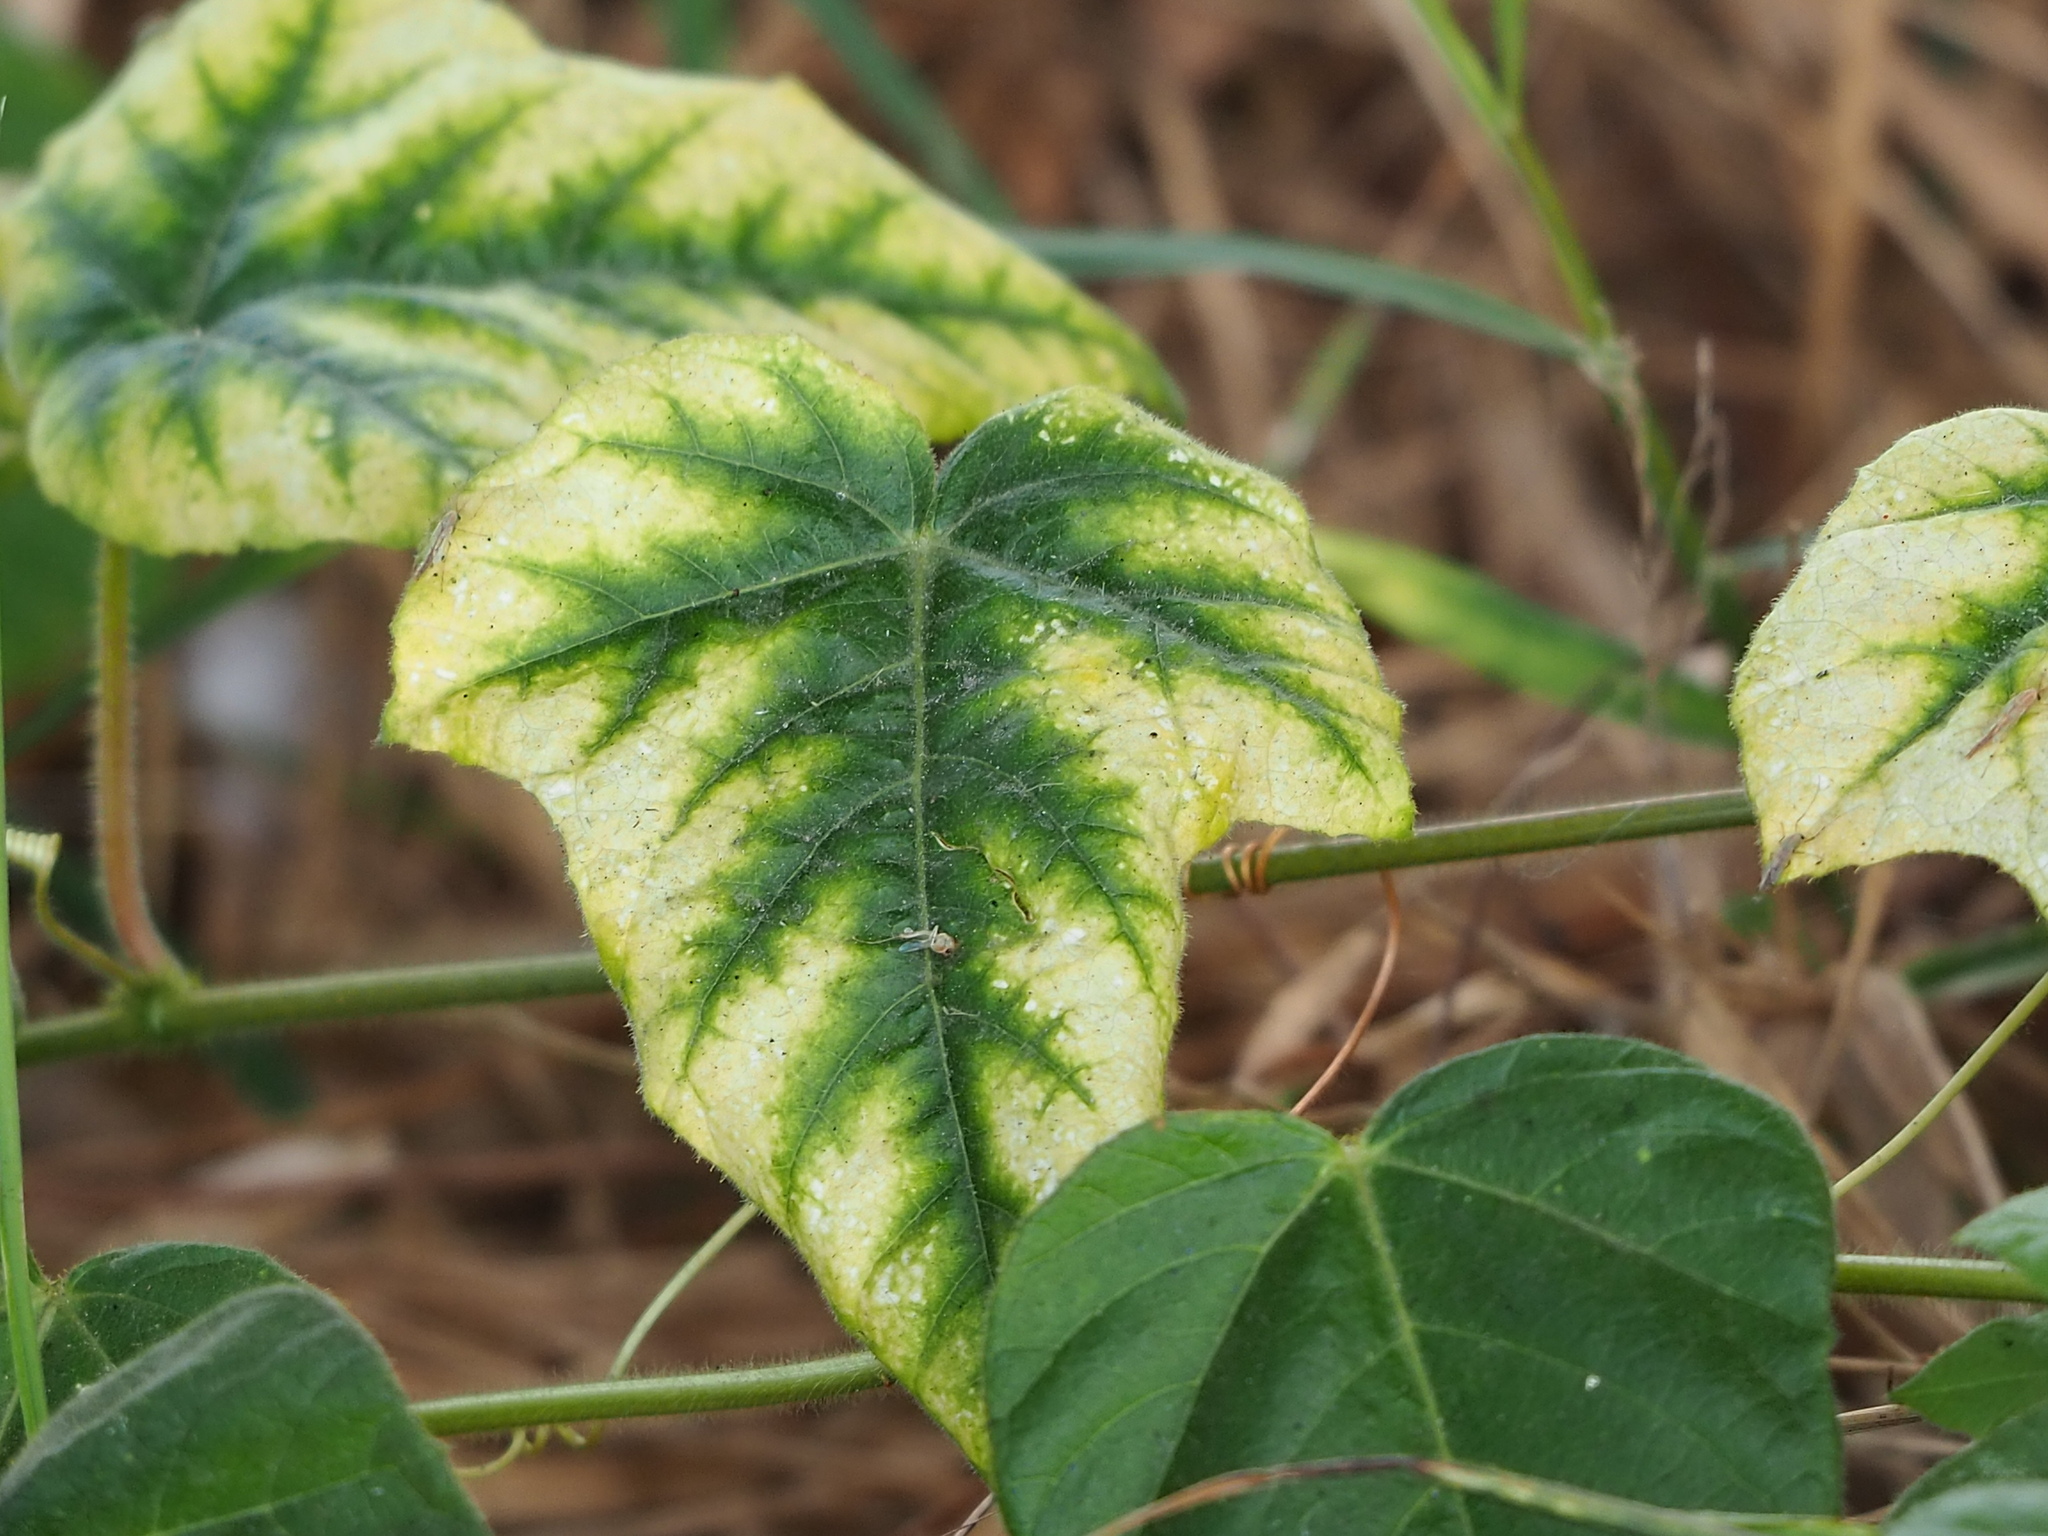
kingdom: Plantae
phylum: Tracheophyta
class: Magnoliopsida
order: Malpighiales
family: Passifloraceae
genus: Passiflora
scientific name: Passiflora vesicaria
